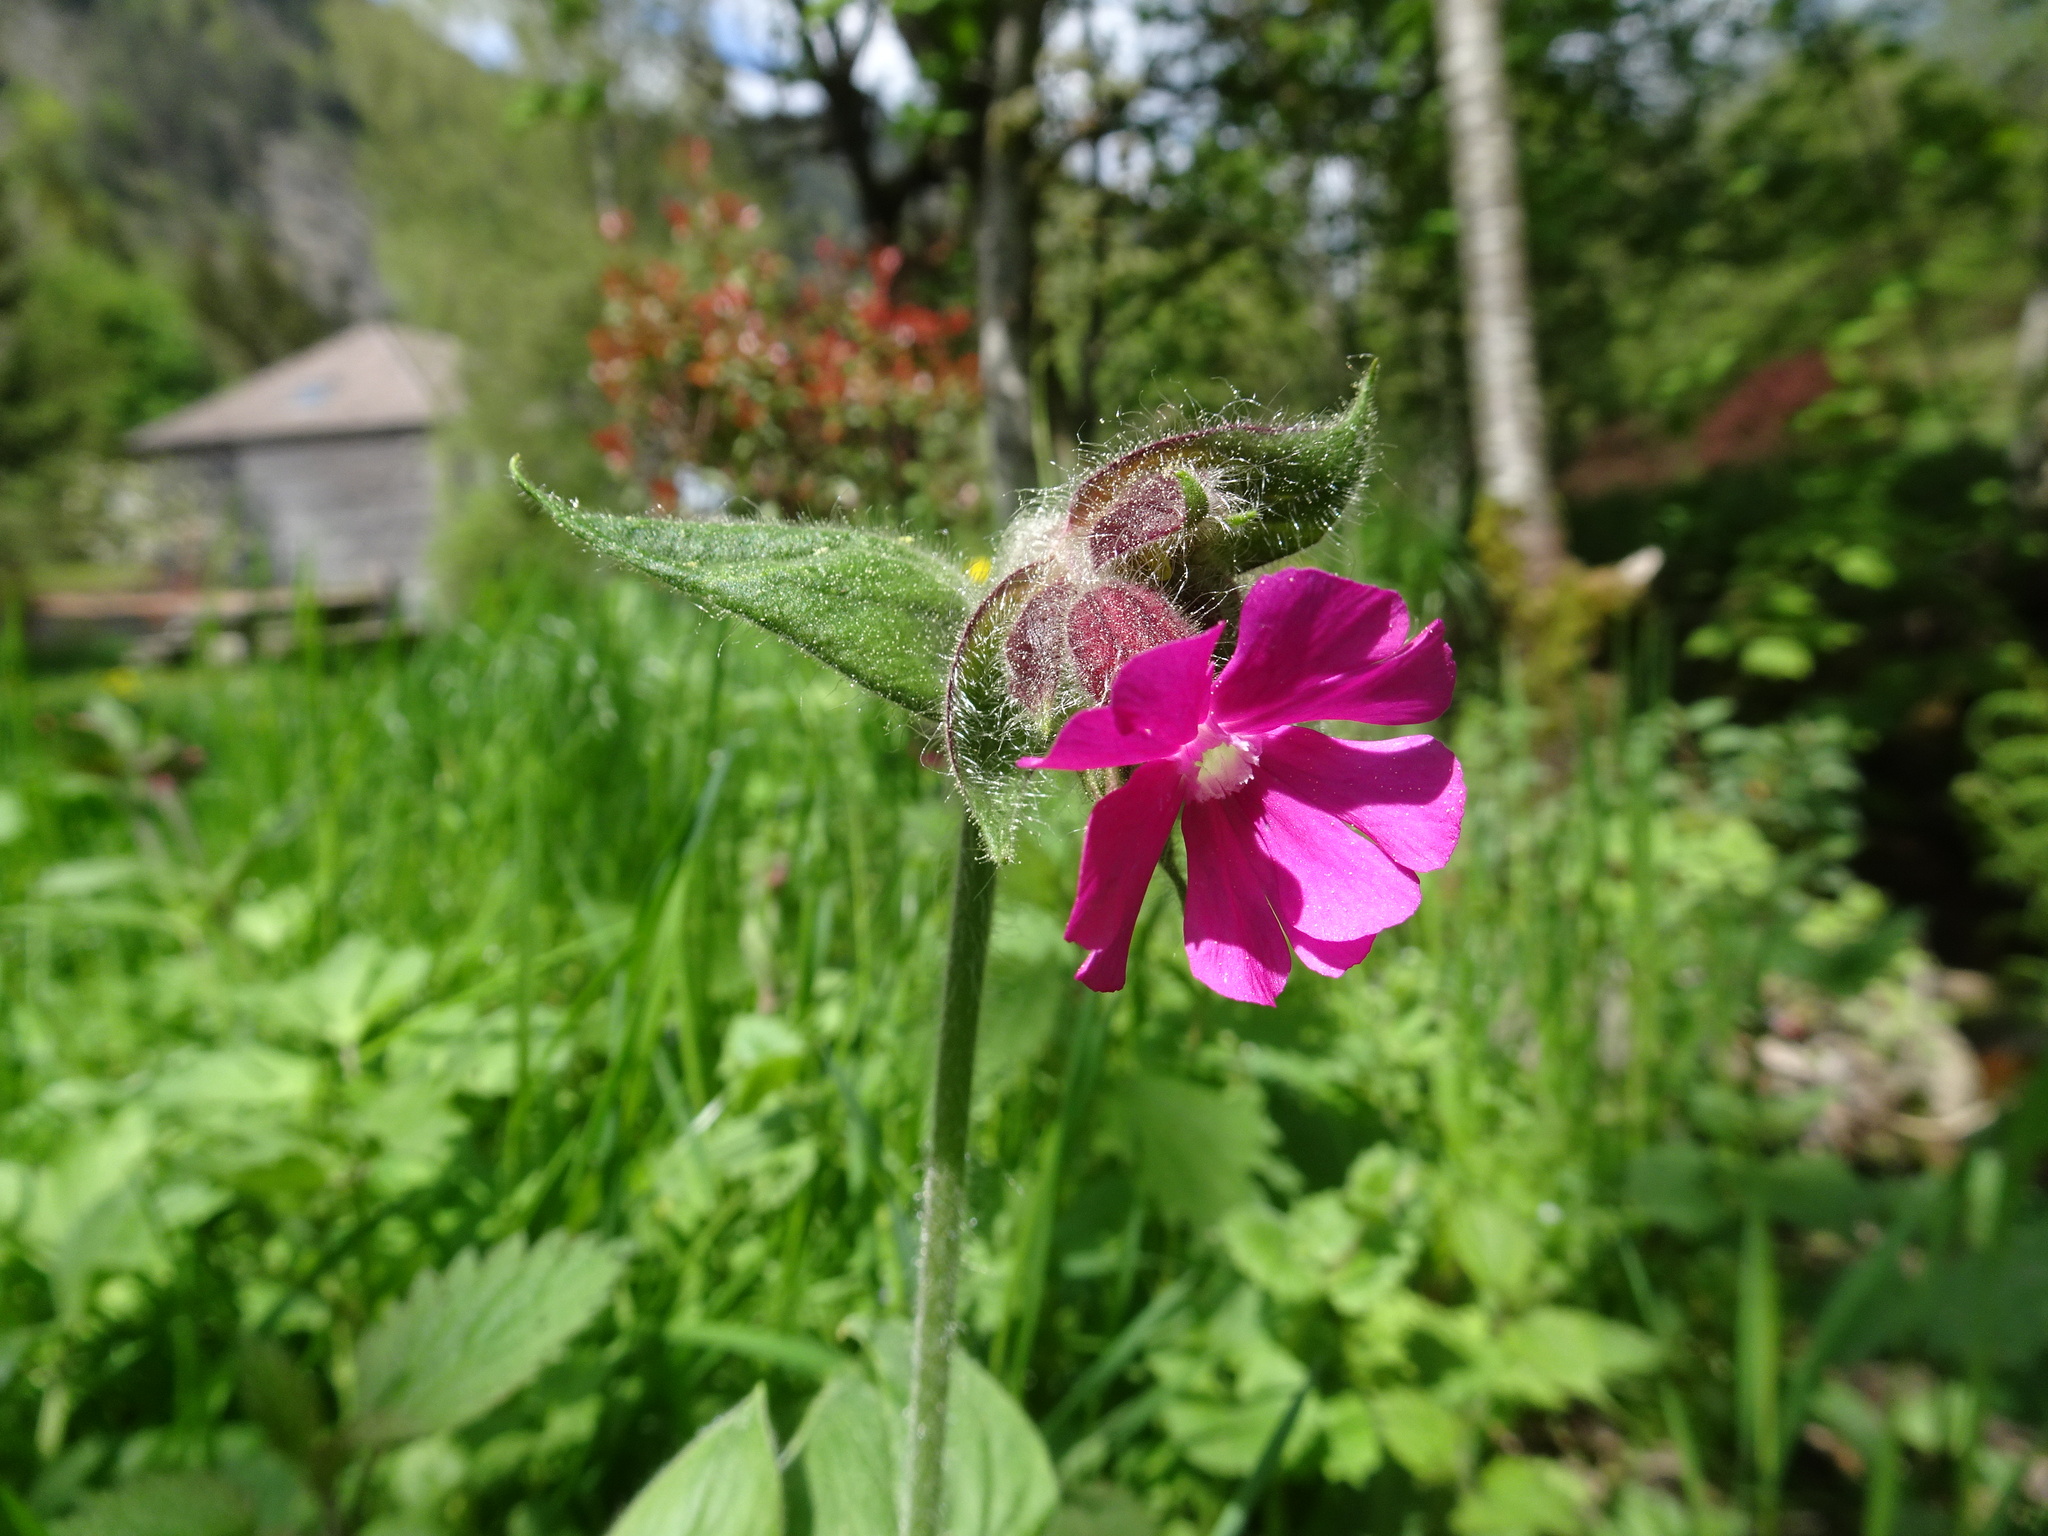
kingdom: Plantae
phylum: Tracheophyta
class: Magnoliopsida
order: Caryophyllales
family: Caryophyllaceae
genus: Silene
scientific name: Silene dioica
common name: Red campion
